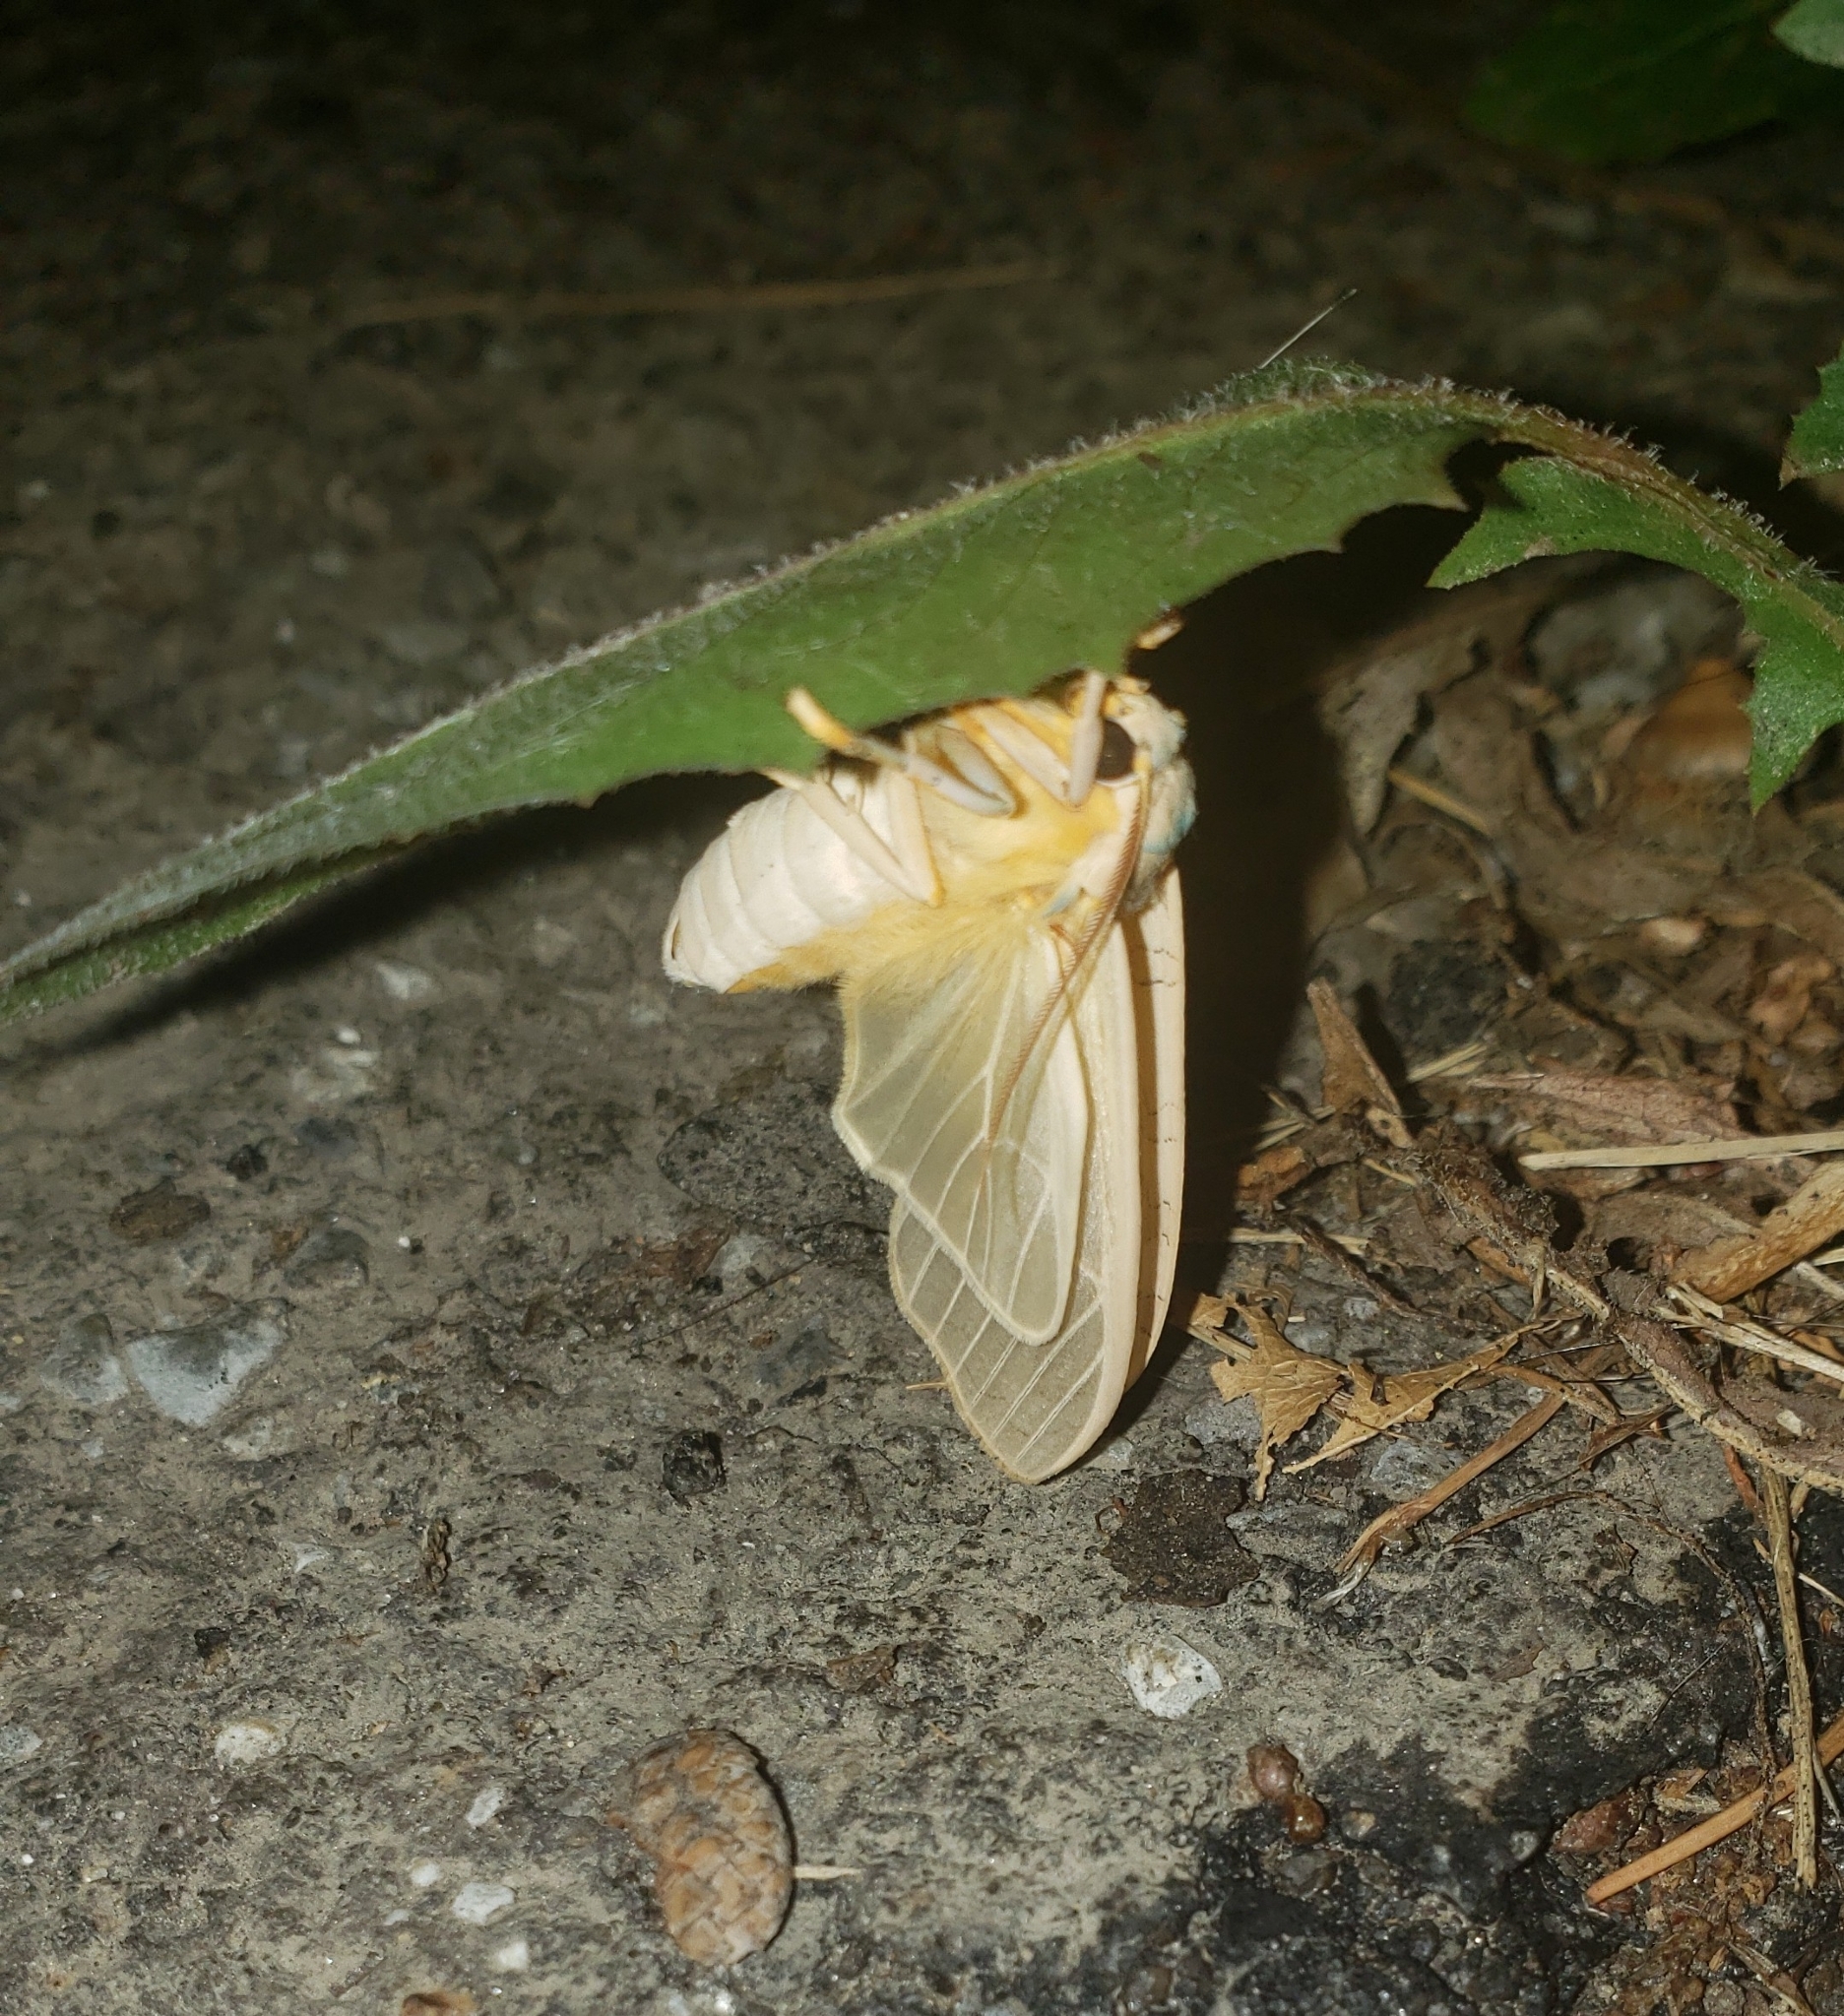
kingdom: Animalia
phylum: Arthropoda
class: Insecta
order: Lepidoptera
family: Erebidae
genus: Halysidota
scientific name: Halysidota
